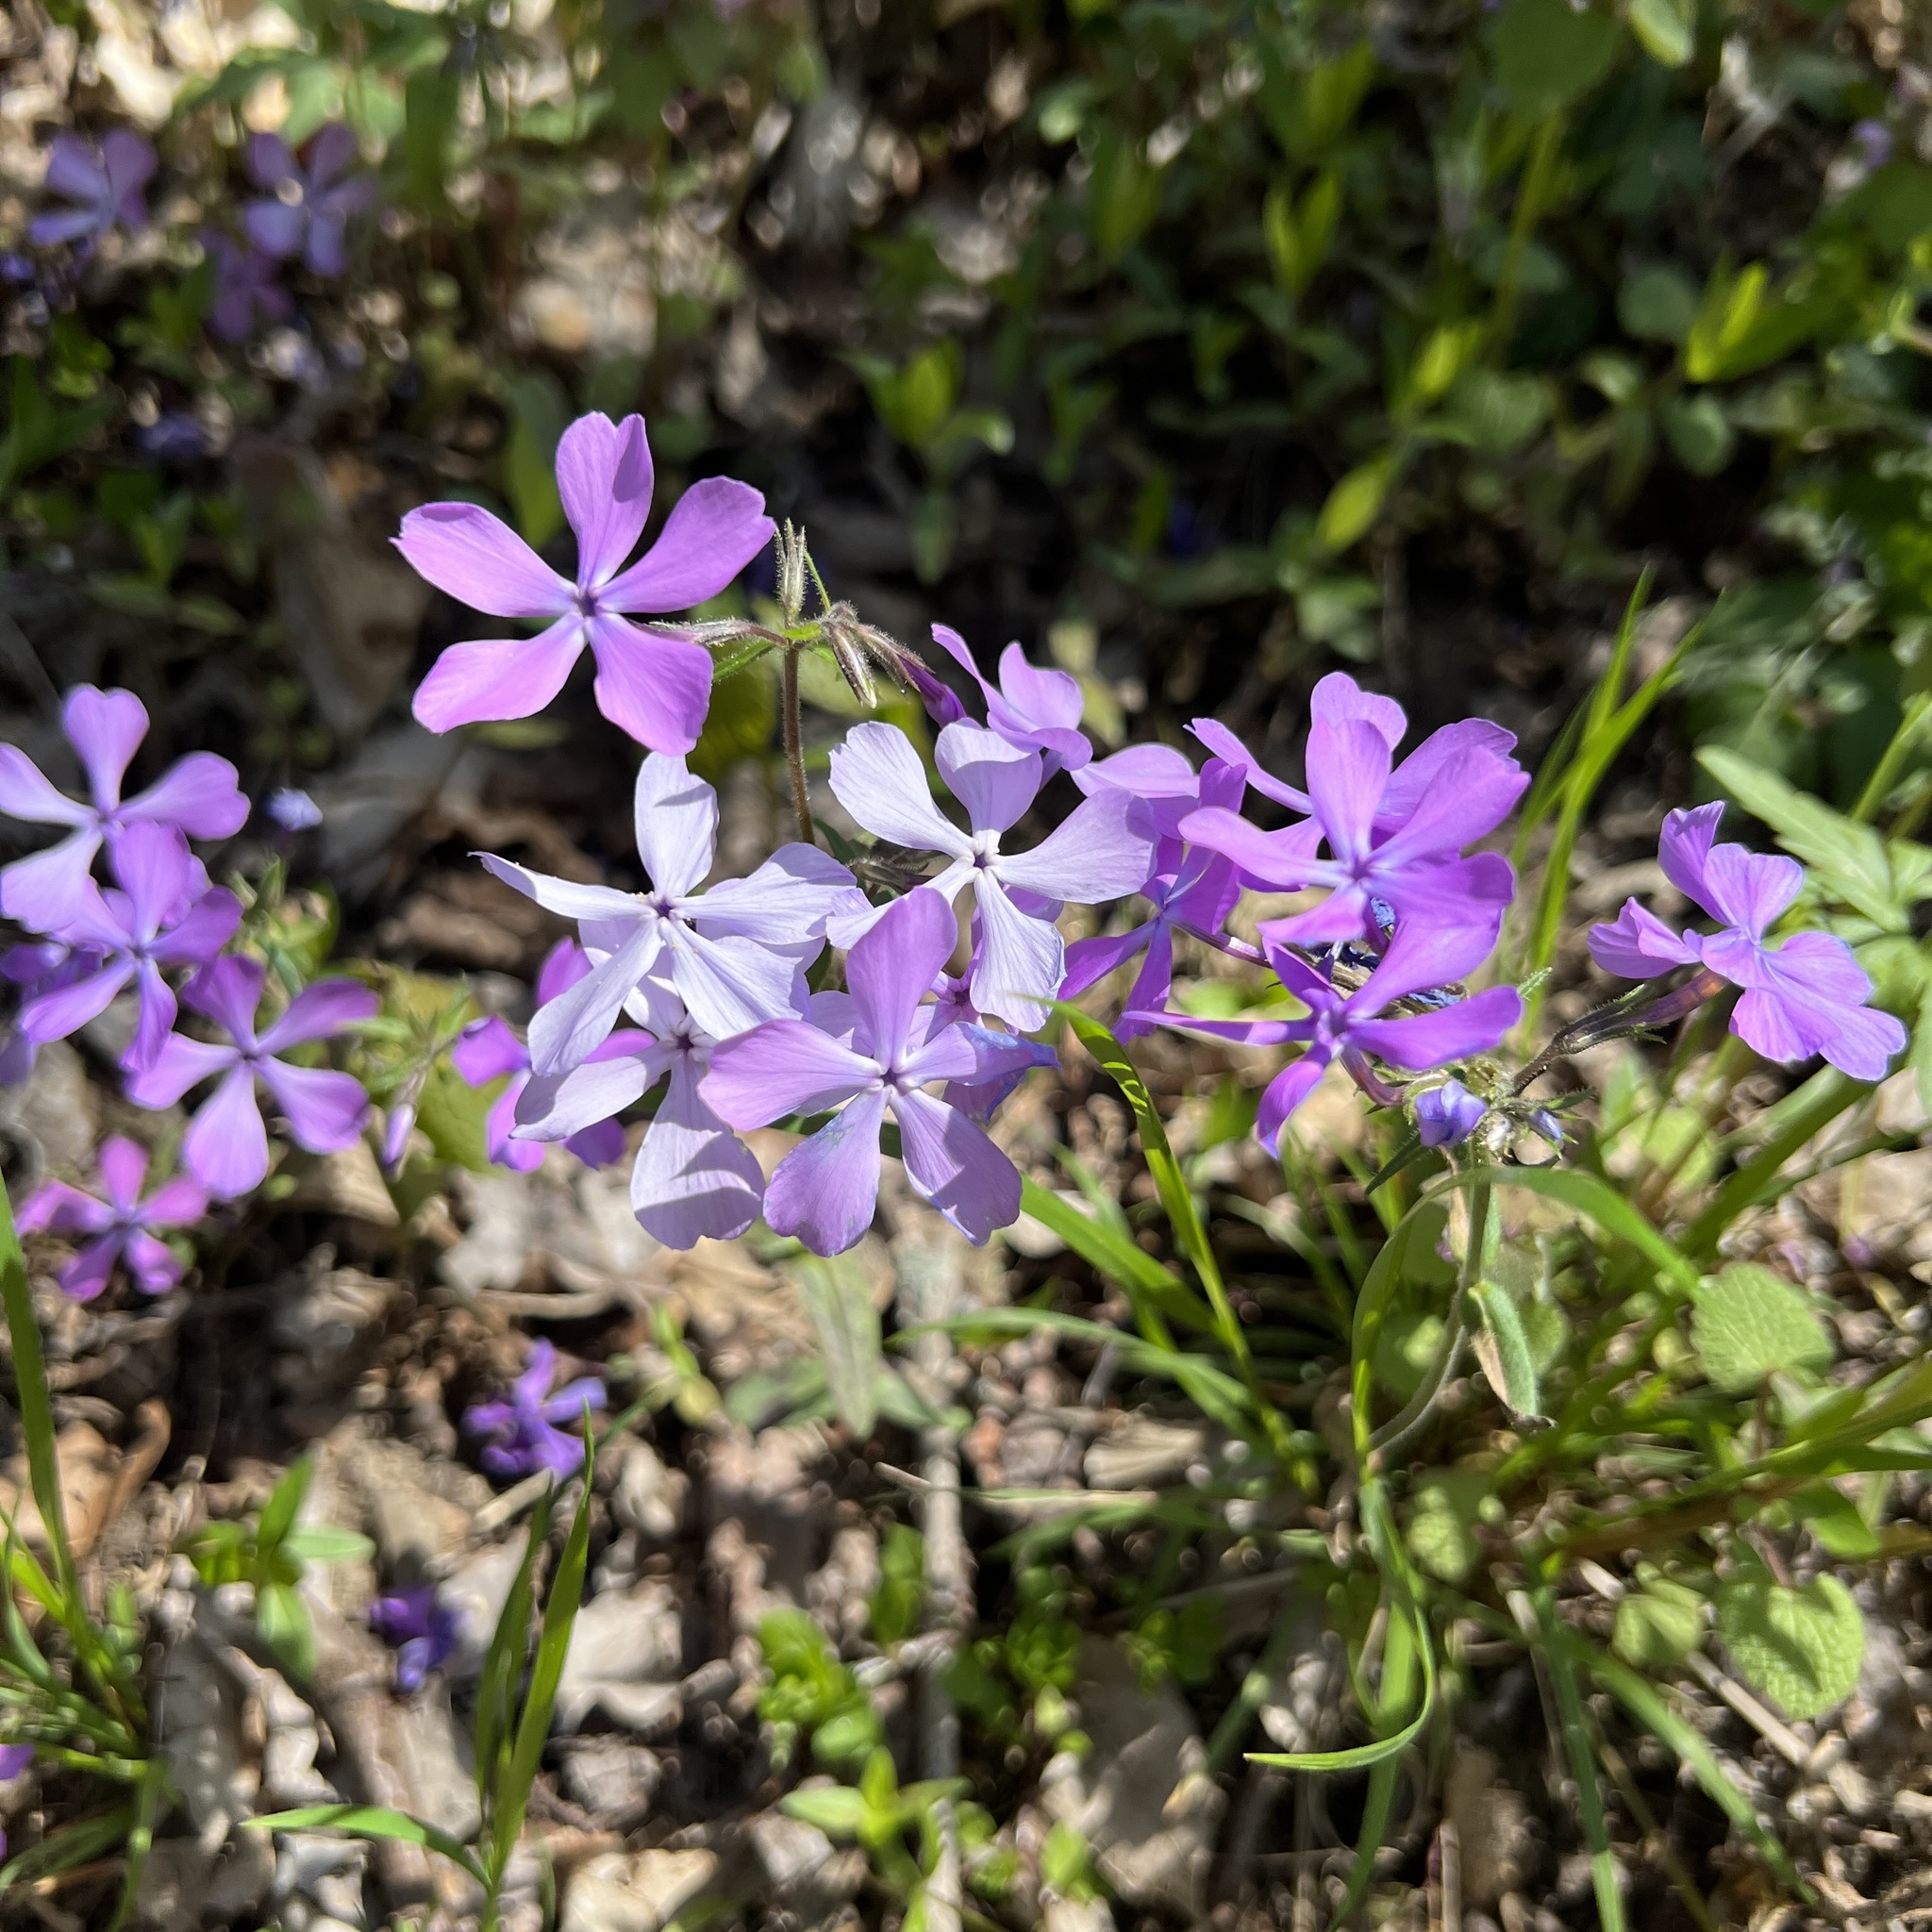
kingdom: Plantae
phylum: Tracheophyta
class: Magnoliopsida
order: Ericales
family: Polemoniaceae
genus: Phlox
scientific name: Phlox divaricata
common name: Blue phlox
